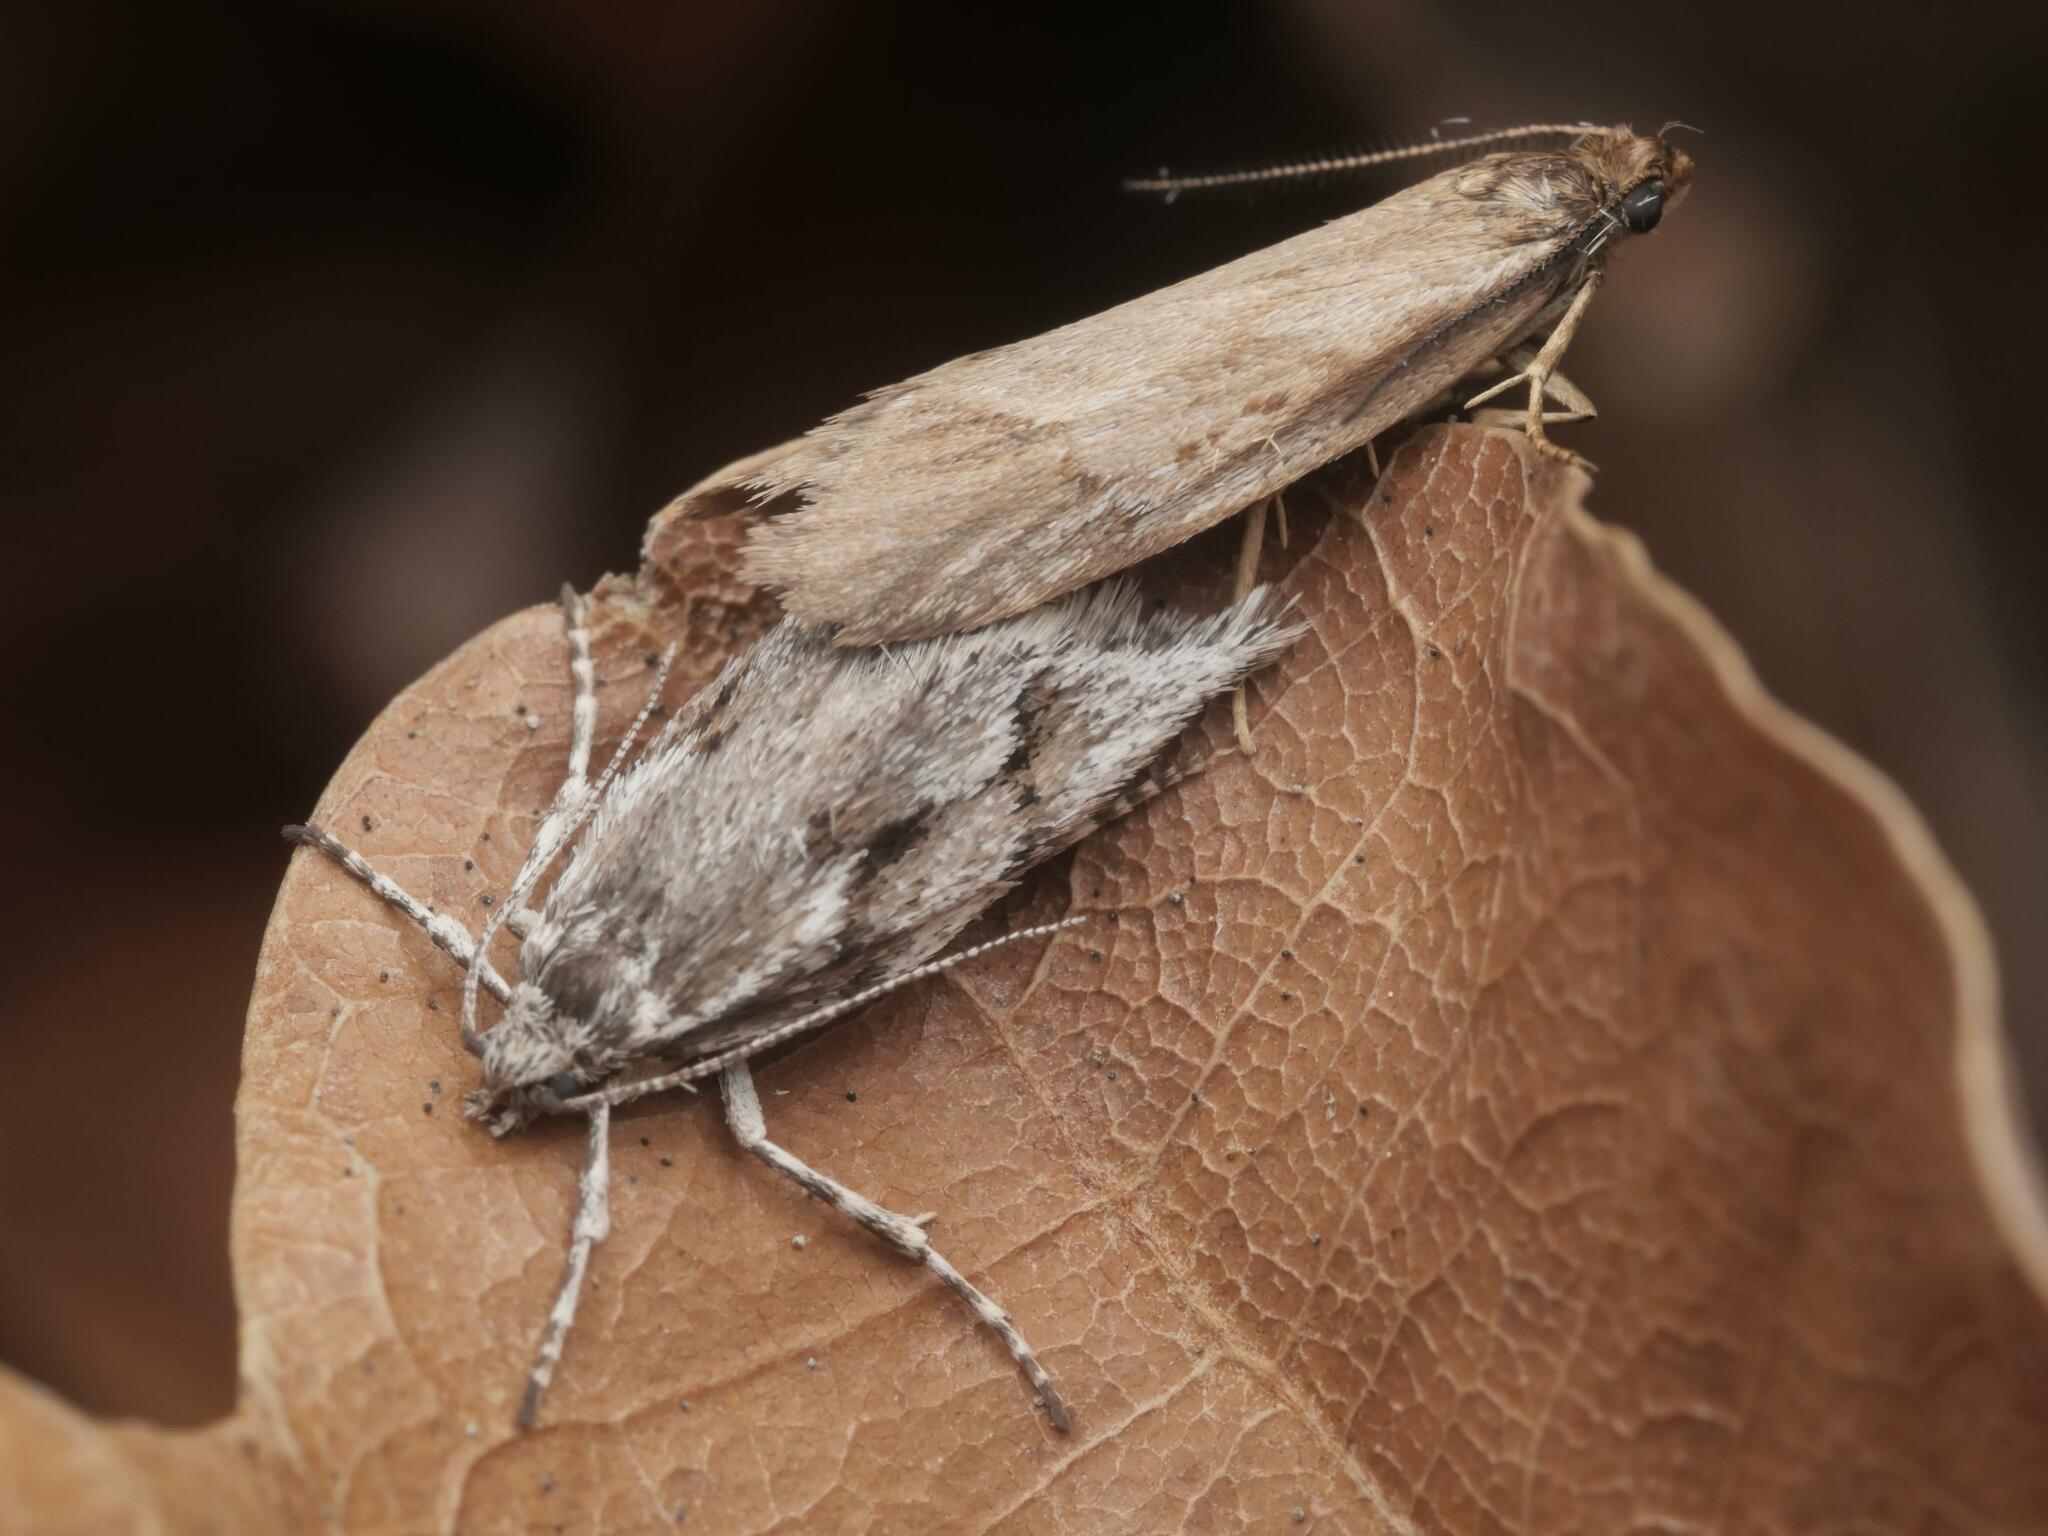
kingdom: Animalia
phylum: Arthropoda
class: Insecta
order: Lepidoptera
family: Lypusidae
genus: Diurnea
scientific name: Diurnea lipsiella
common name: November tubic
